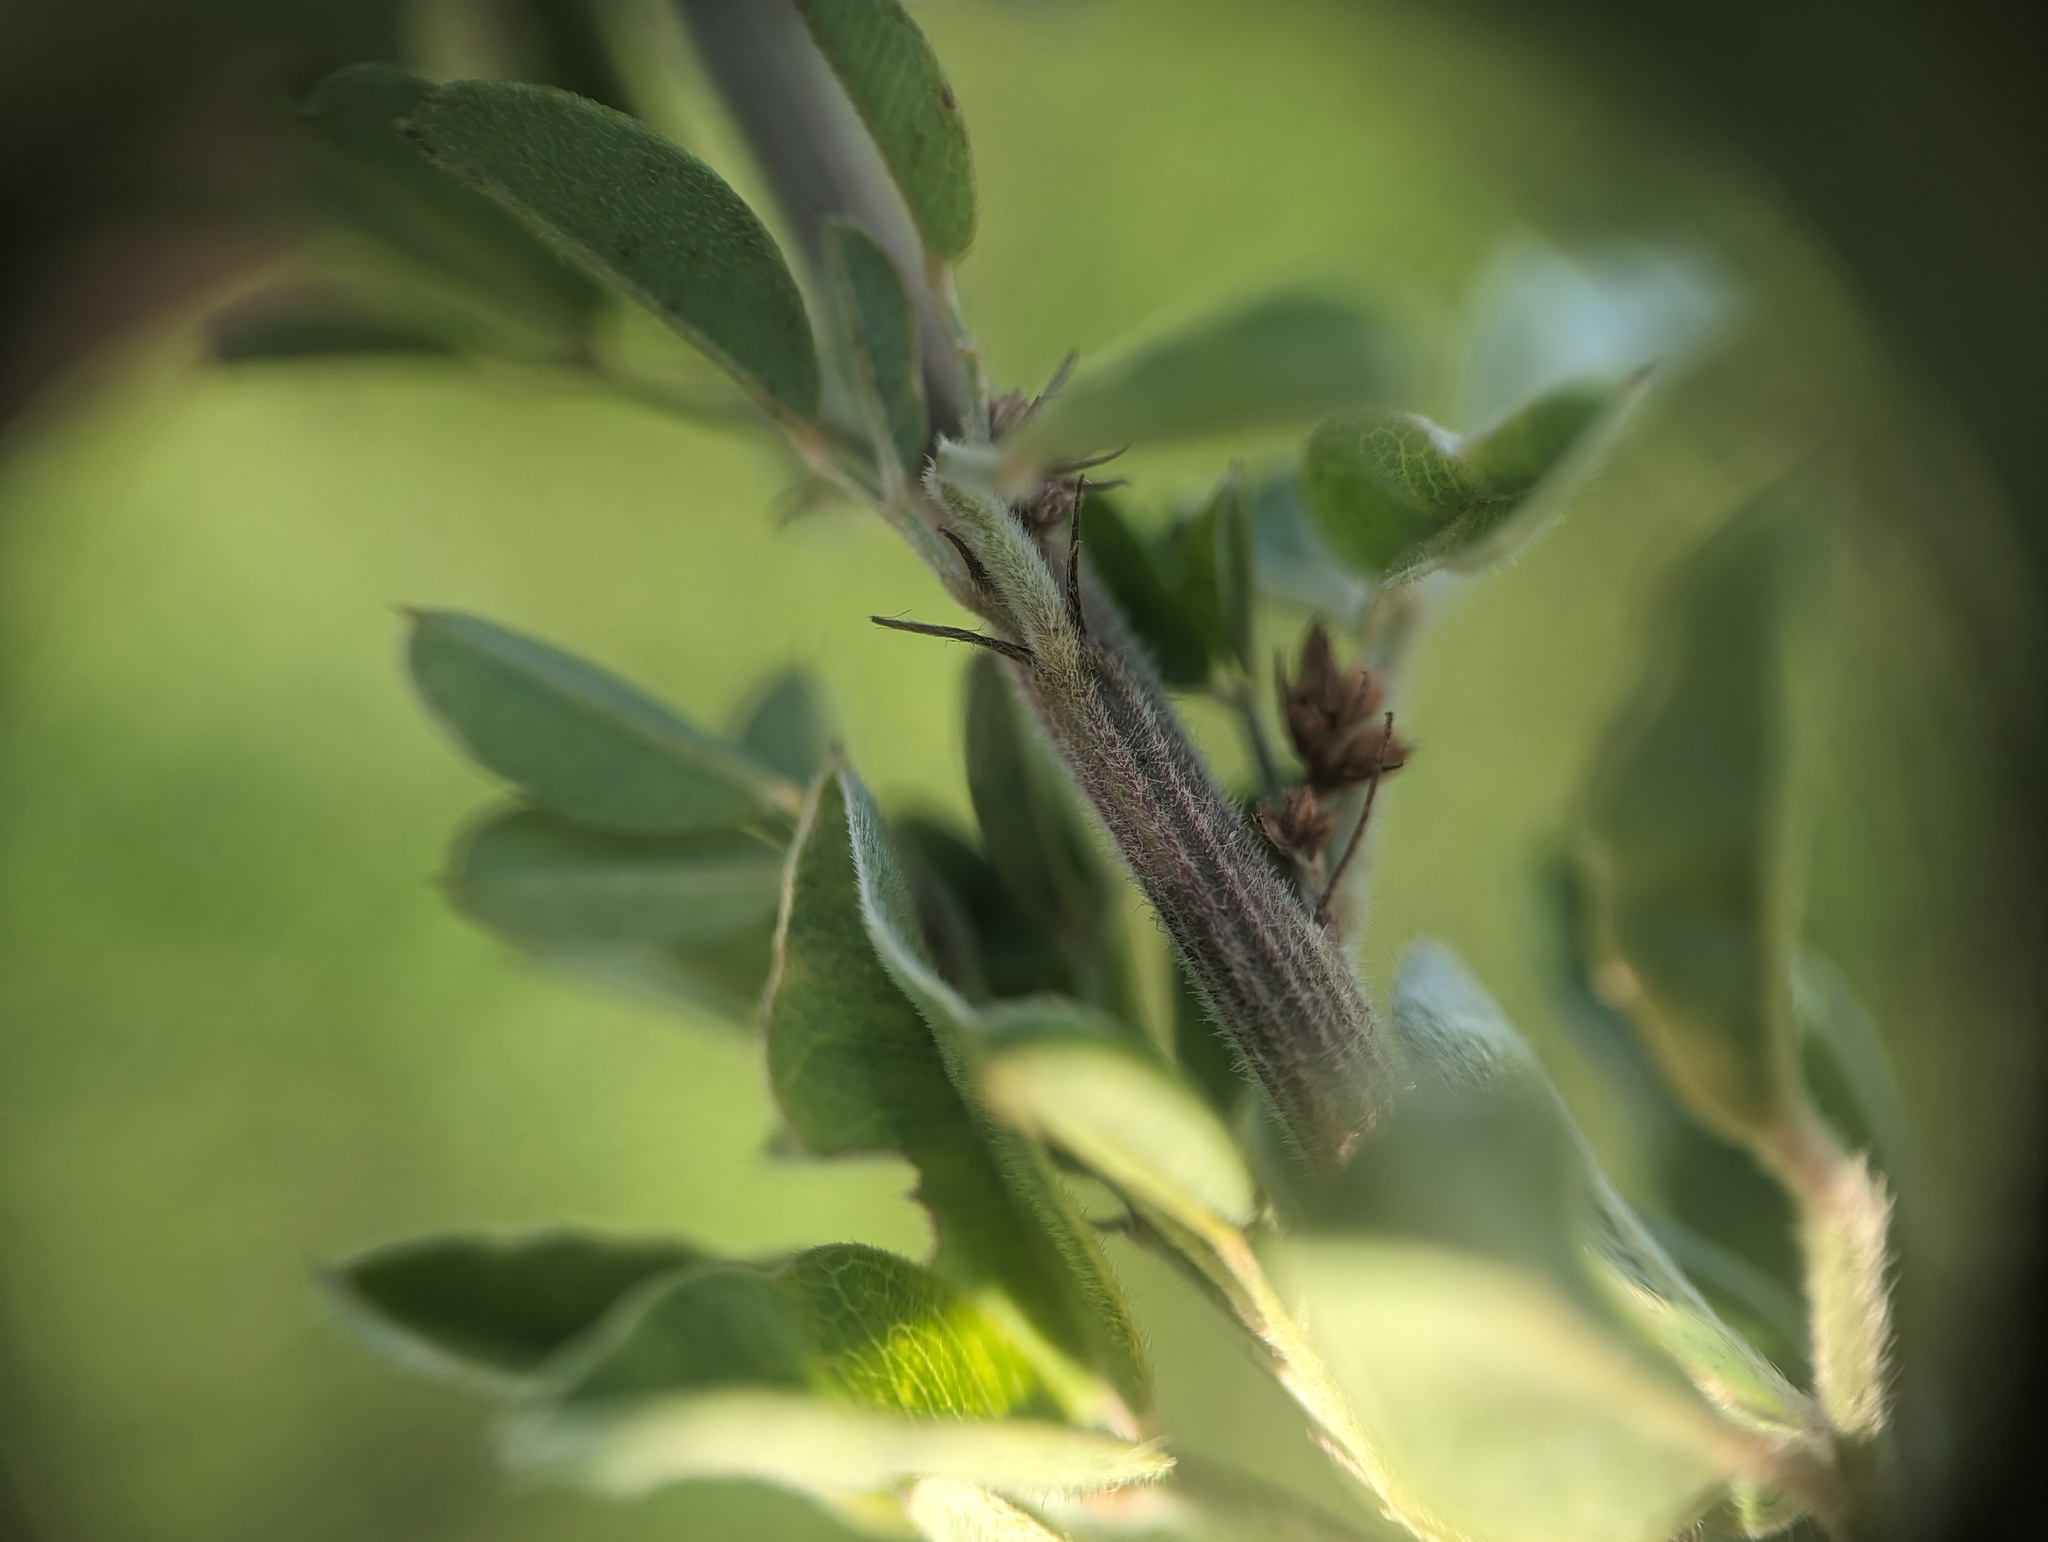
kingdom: Plantae
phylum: Tracheophyta
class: Magnoliopsida
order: Fabales
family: Fabaceae
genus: Lespedeza
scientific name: Lespedeza stuevei
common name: Tall bush-clover
